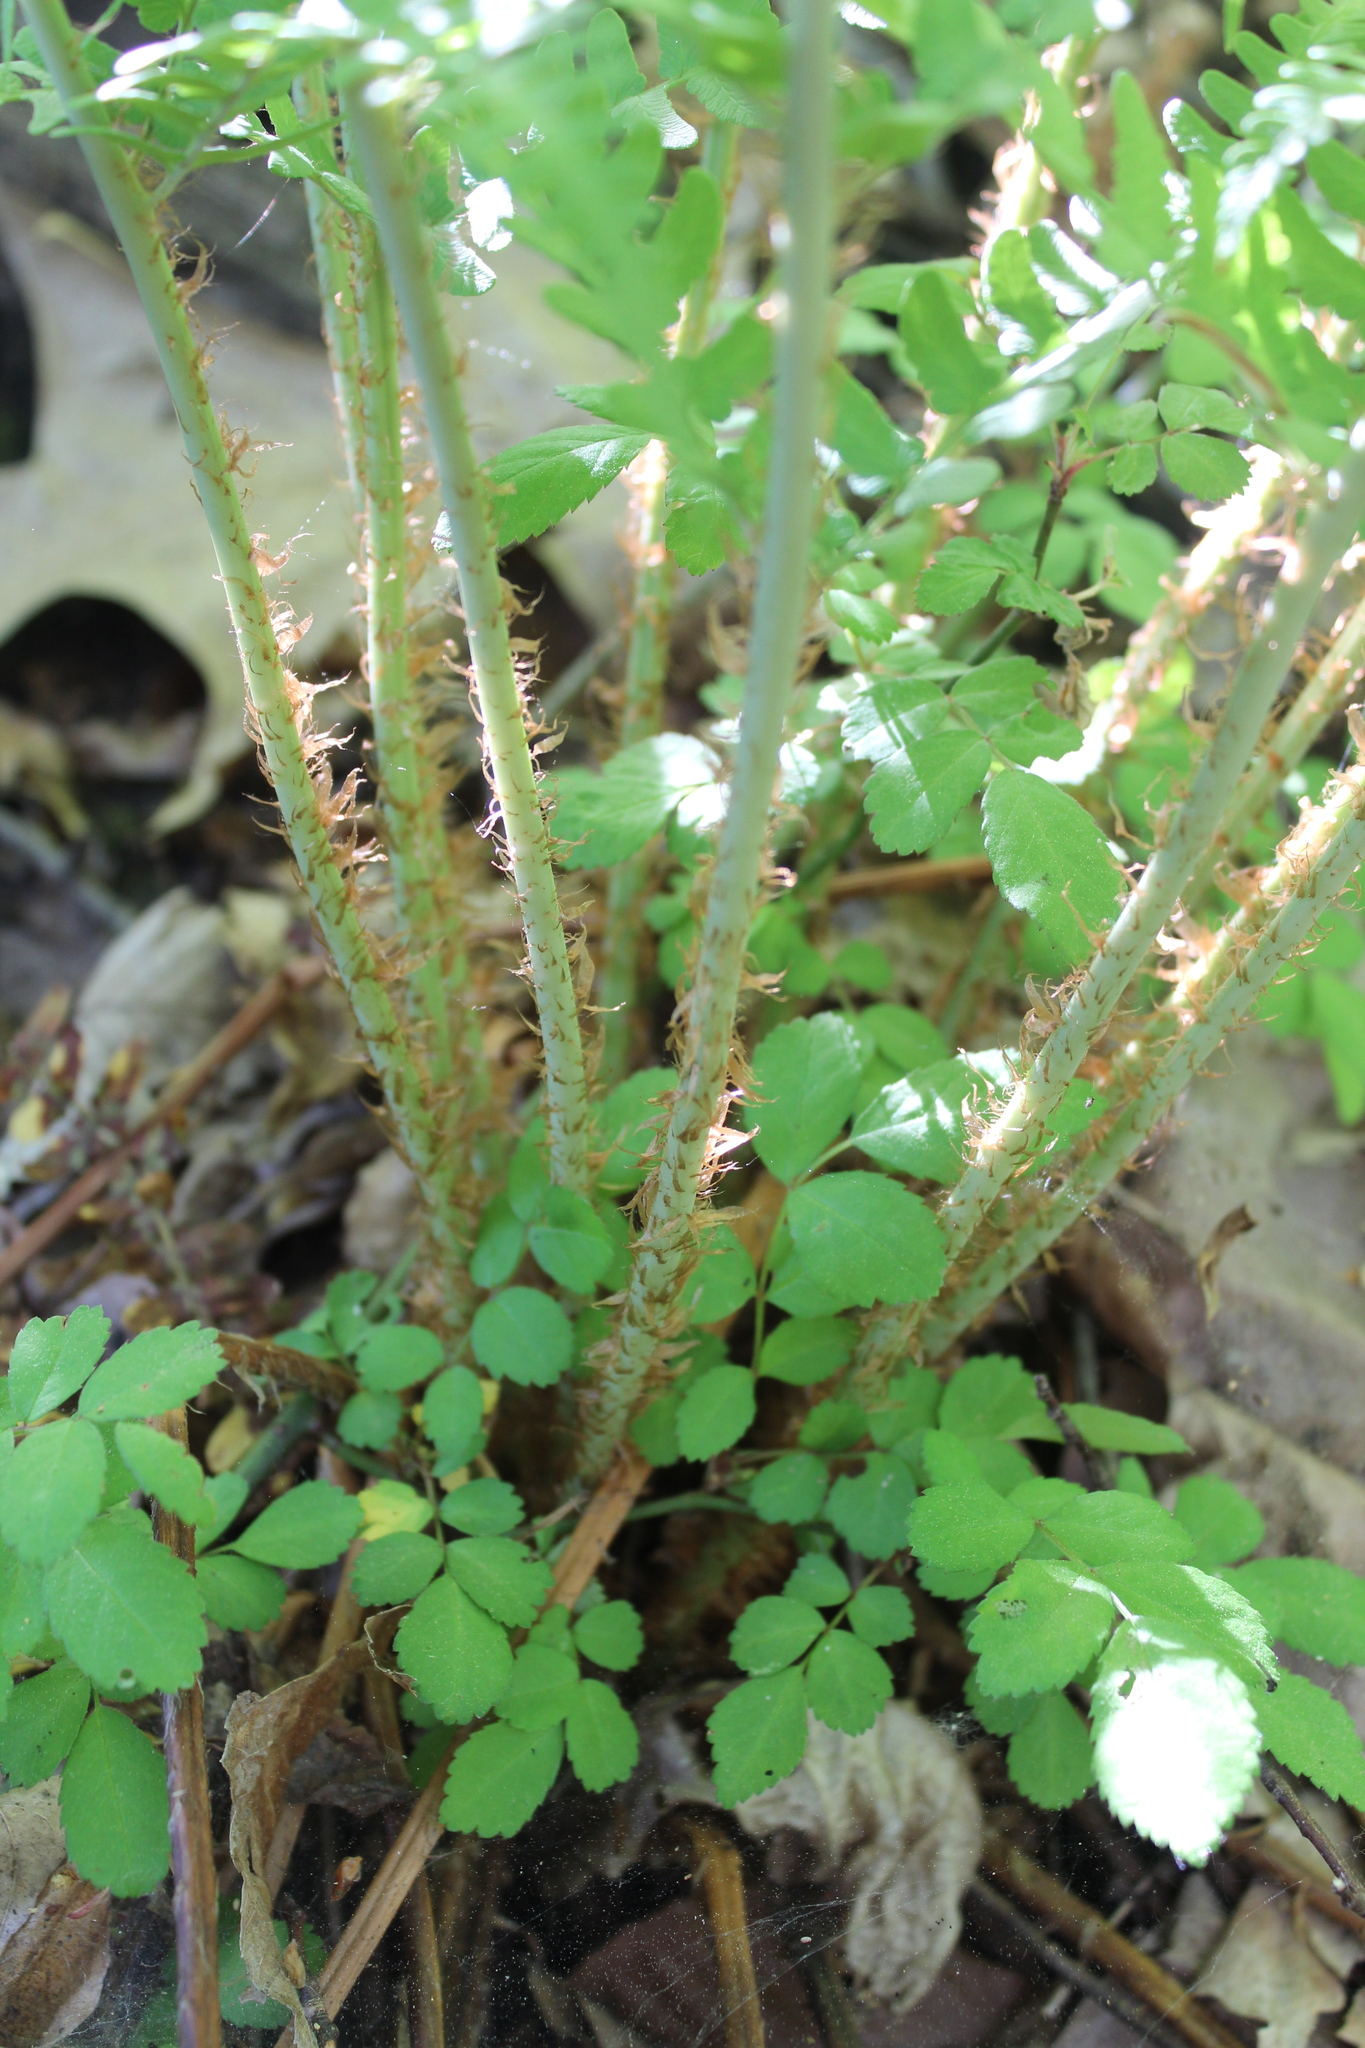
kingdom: Plantae
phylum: Tracheophyta
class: Polypodiopsida
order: Polypodiales
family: Dryopteridaceae
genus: Dryopteris
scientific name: Dryopteris marginalis
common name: Marginal wood fern
